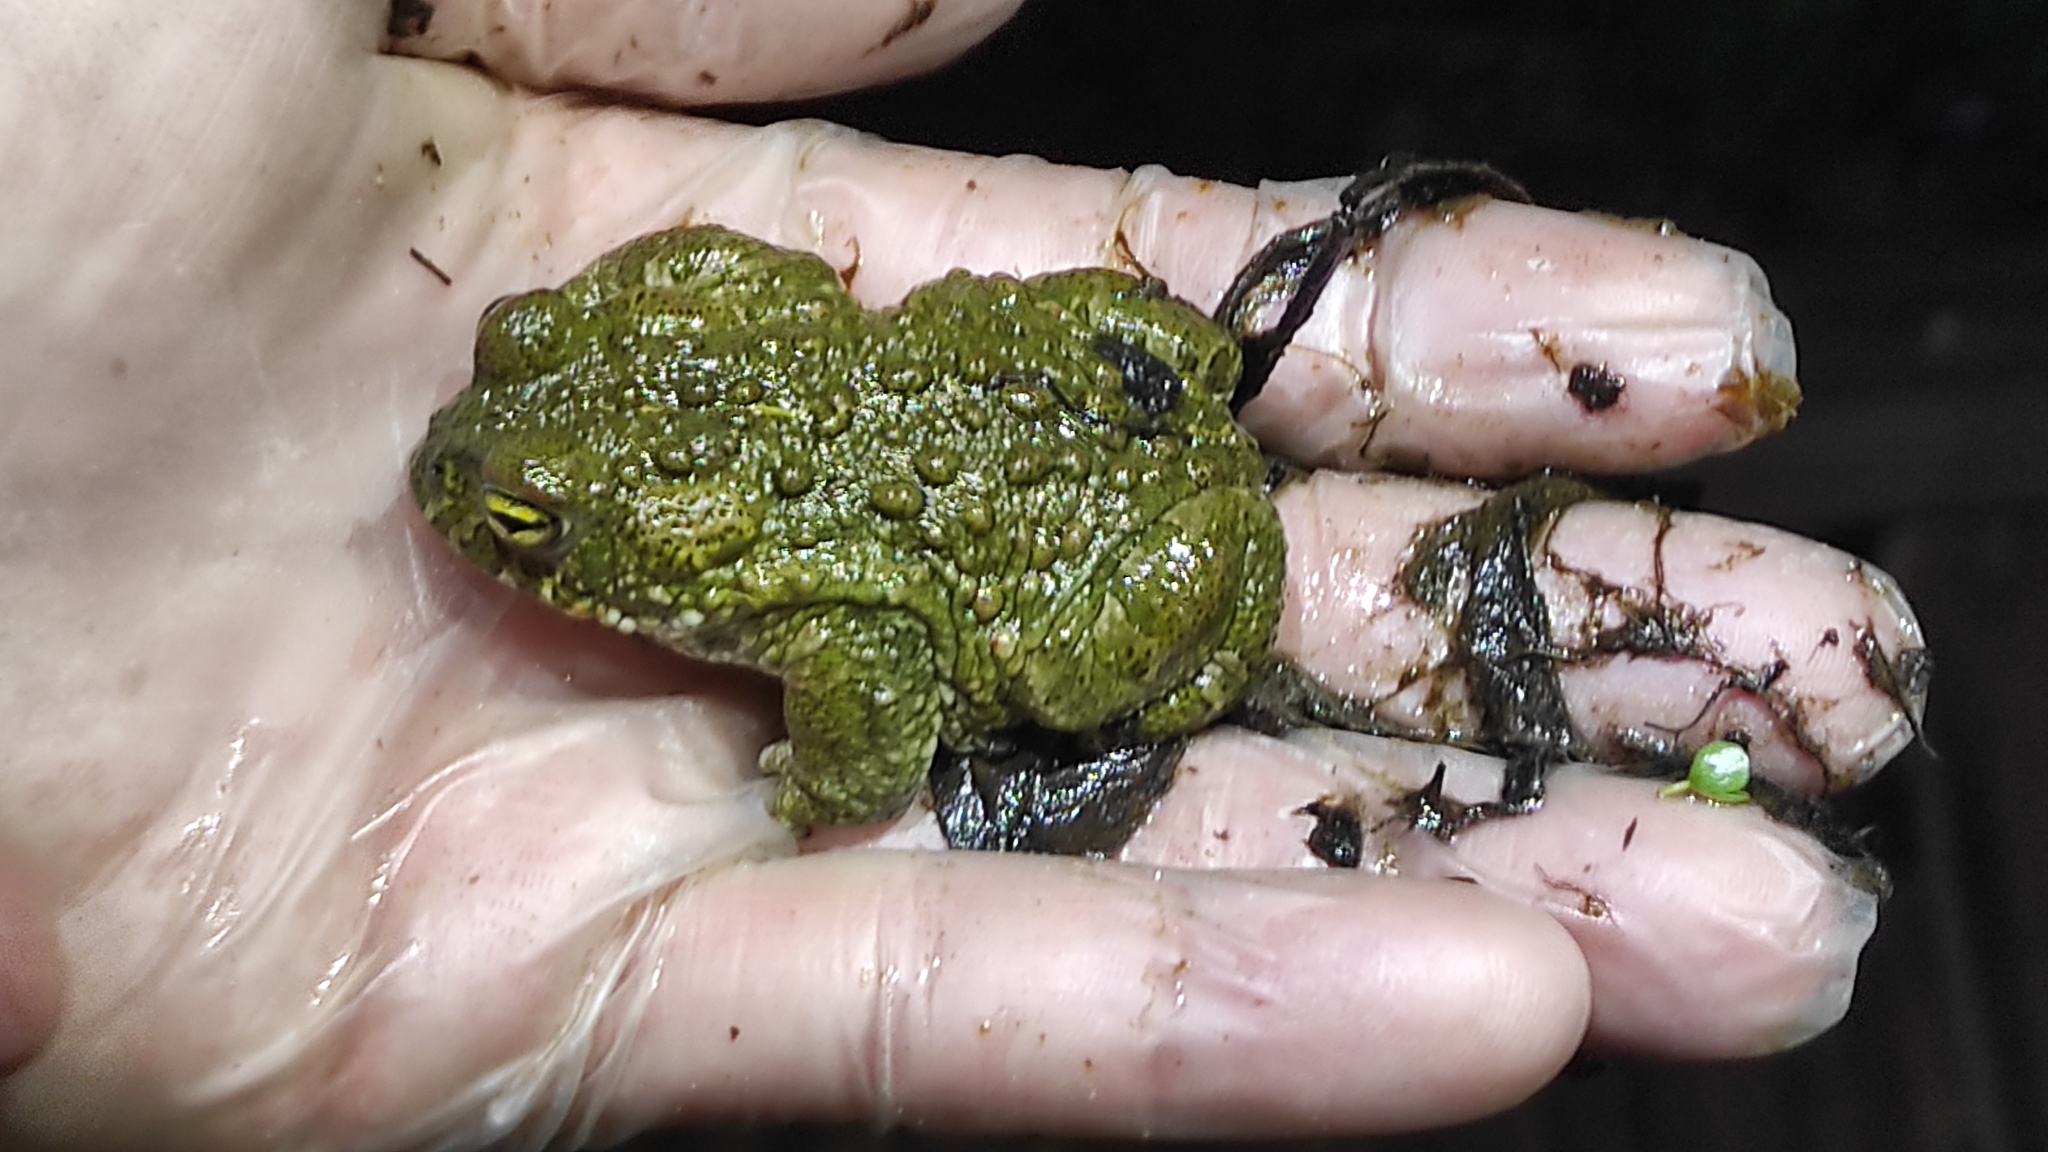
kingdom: Animalia
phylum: Chordata
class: Amphibia
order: Anura
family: Bufonidae
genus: Epidalea
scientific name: Epidalea calamita
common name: Natterjack toad
